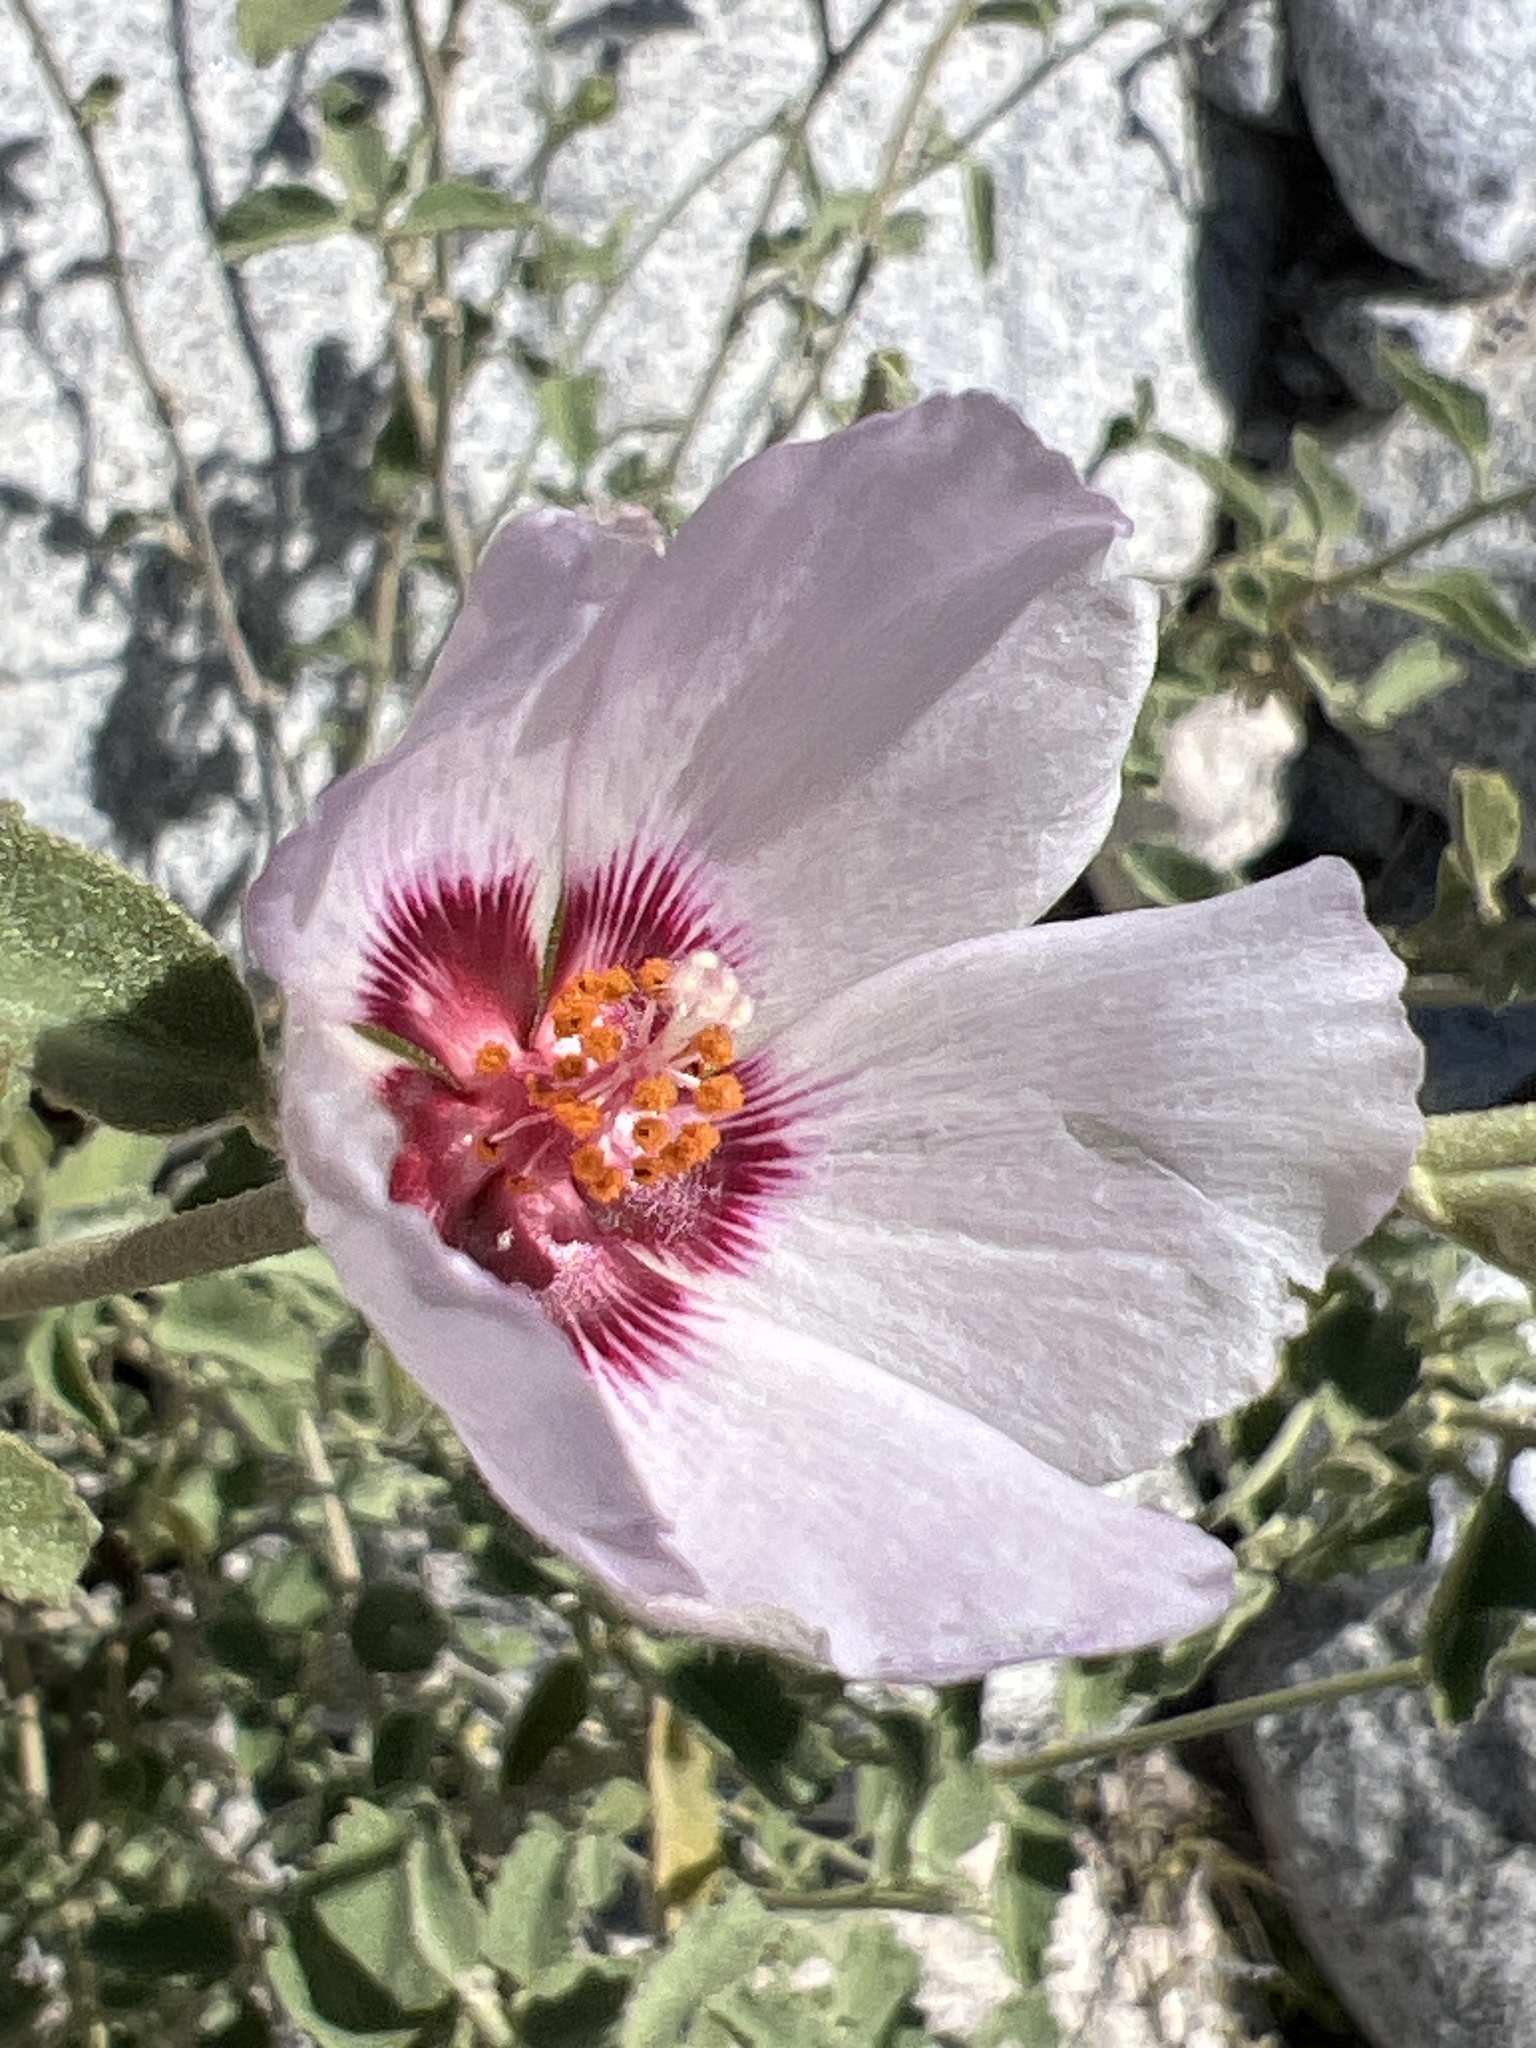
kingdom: Plantae
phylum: Tracheophyta
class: Magnoliopsida
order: Malvales
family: Malvaceae
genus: Hibiscus
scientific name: Hibiscus denudatus
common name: Paleface
